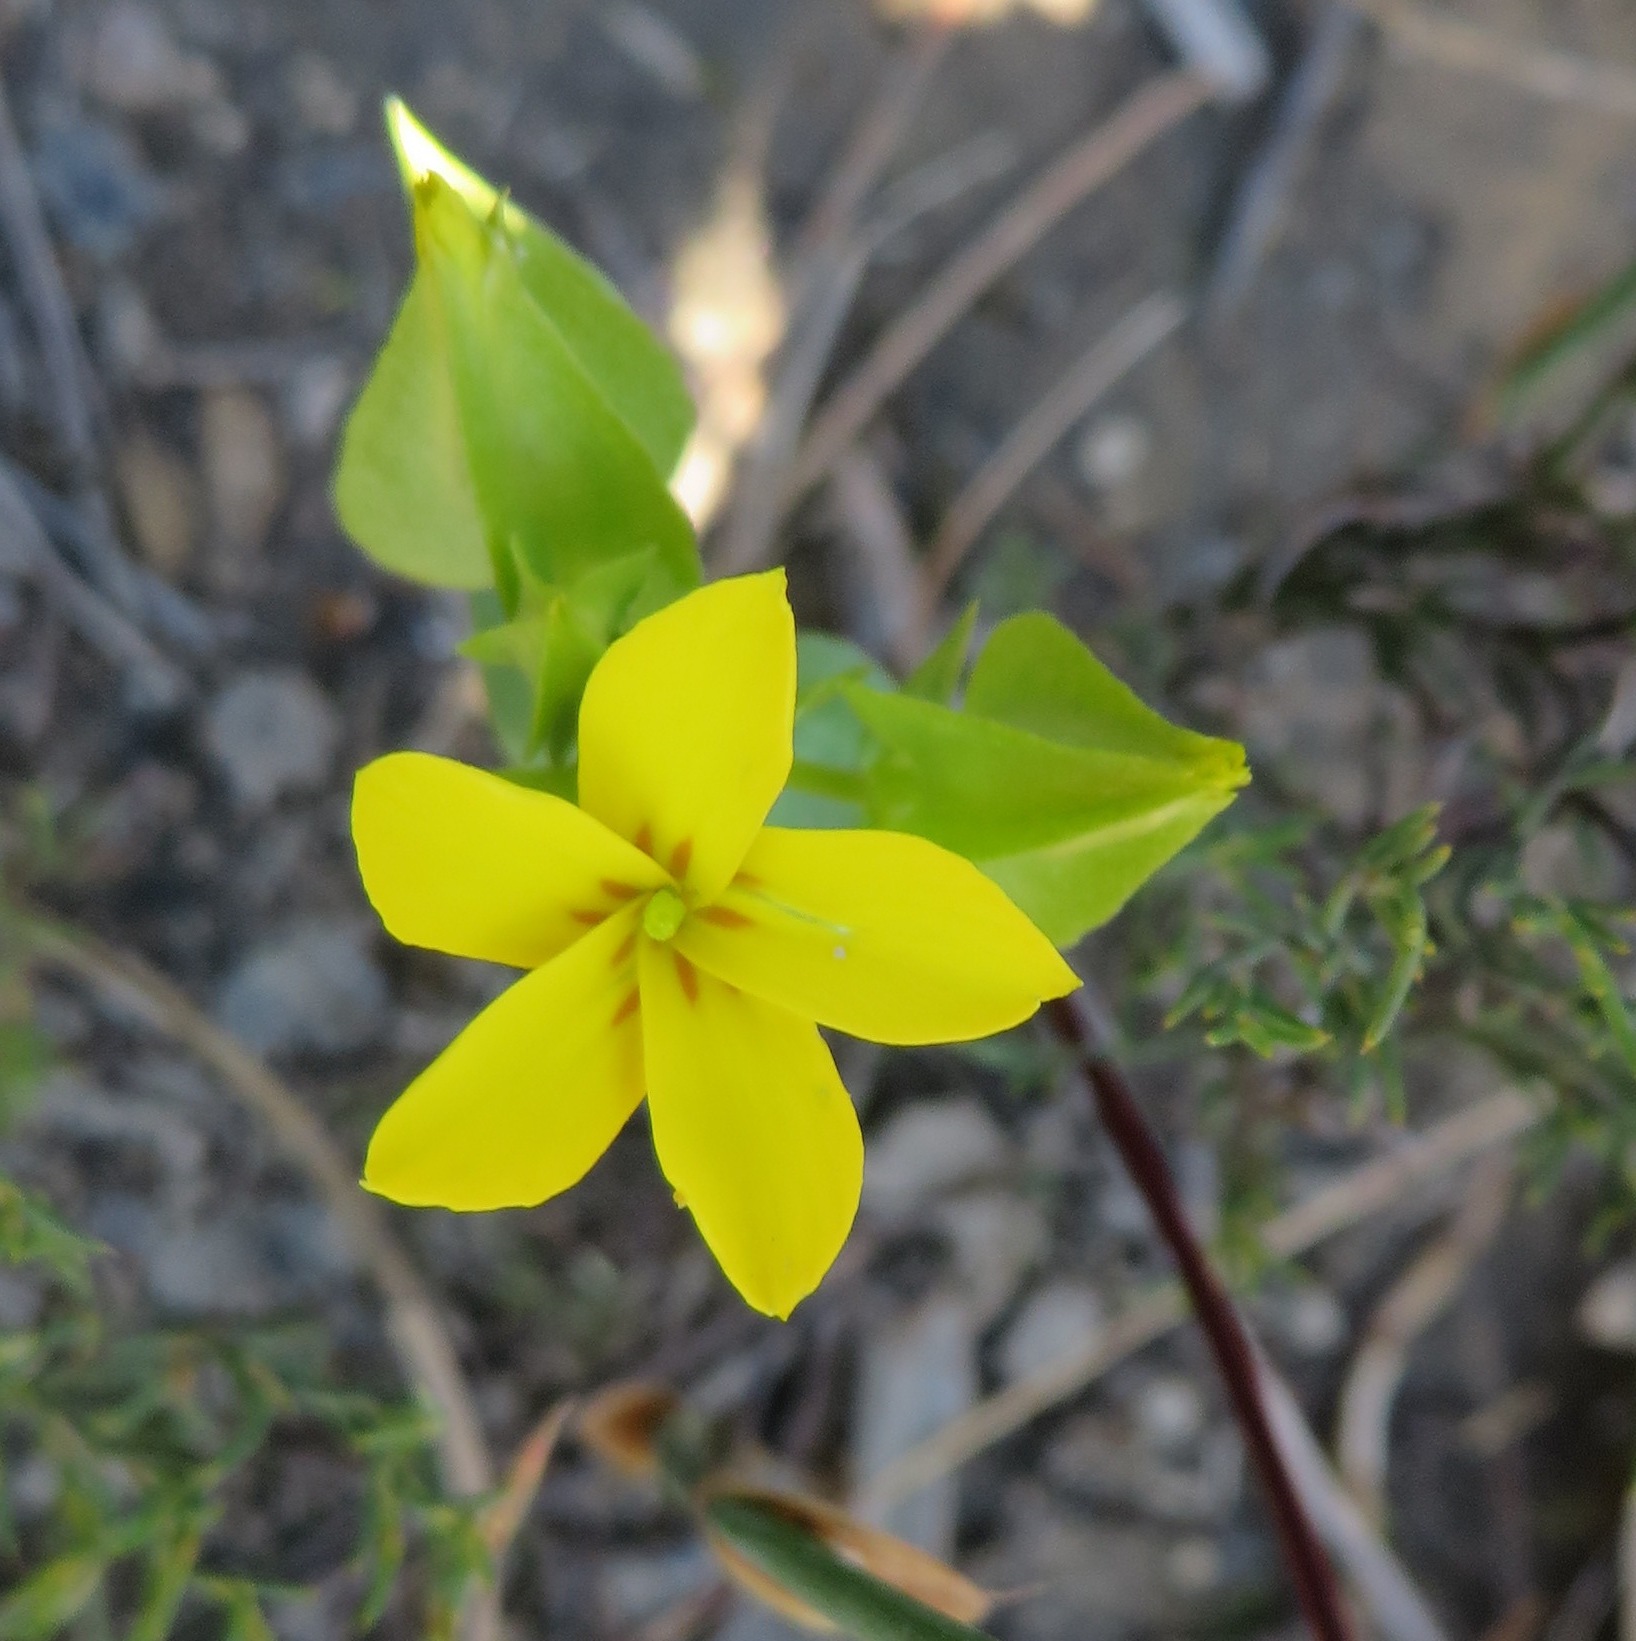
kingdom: Plantae
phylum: Tracheophyta
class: Magnoliopsida
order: Gentianales
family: Gentianaceae
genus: Sebaea
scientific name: Sebaea exacoides
